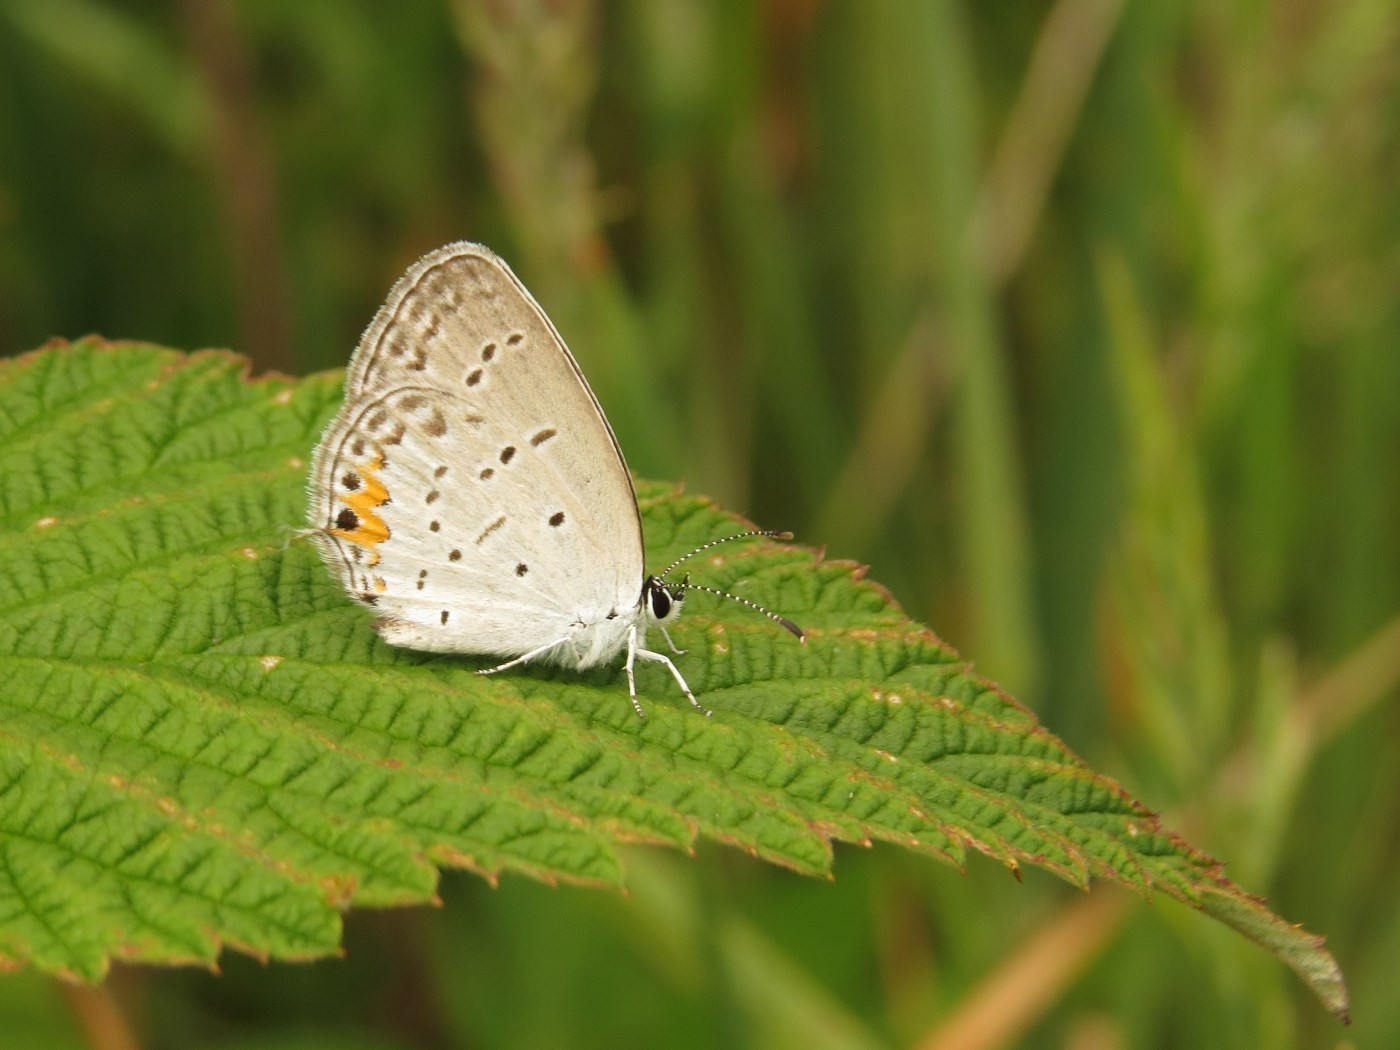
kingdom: Animalia
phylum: Arthropoda
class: Insecta
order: Lepidoptera
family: Lycaenidae
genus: Elkalyce
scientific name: Elkalyce comyntas
